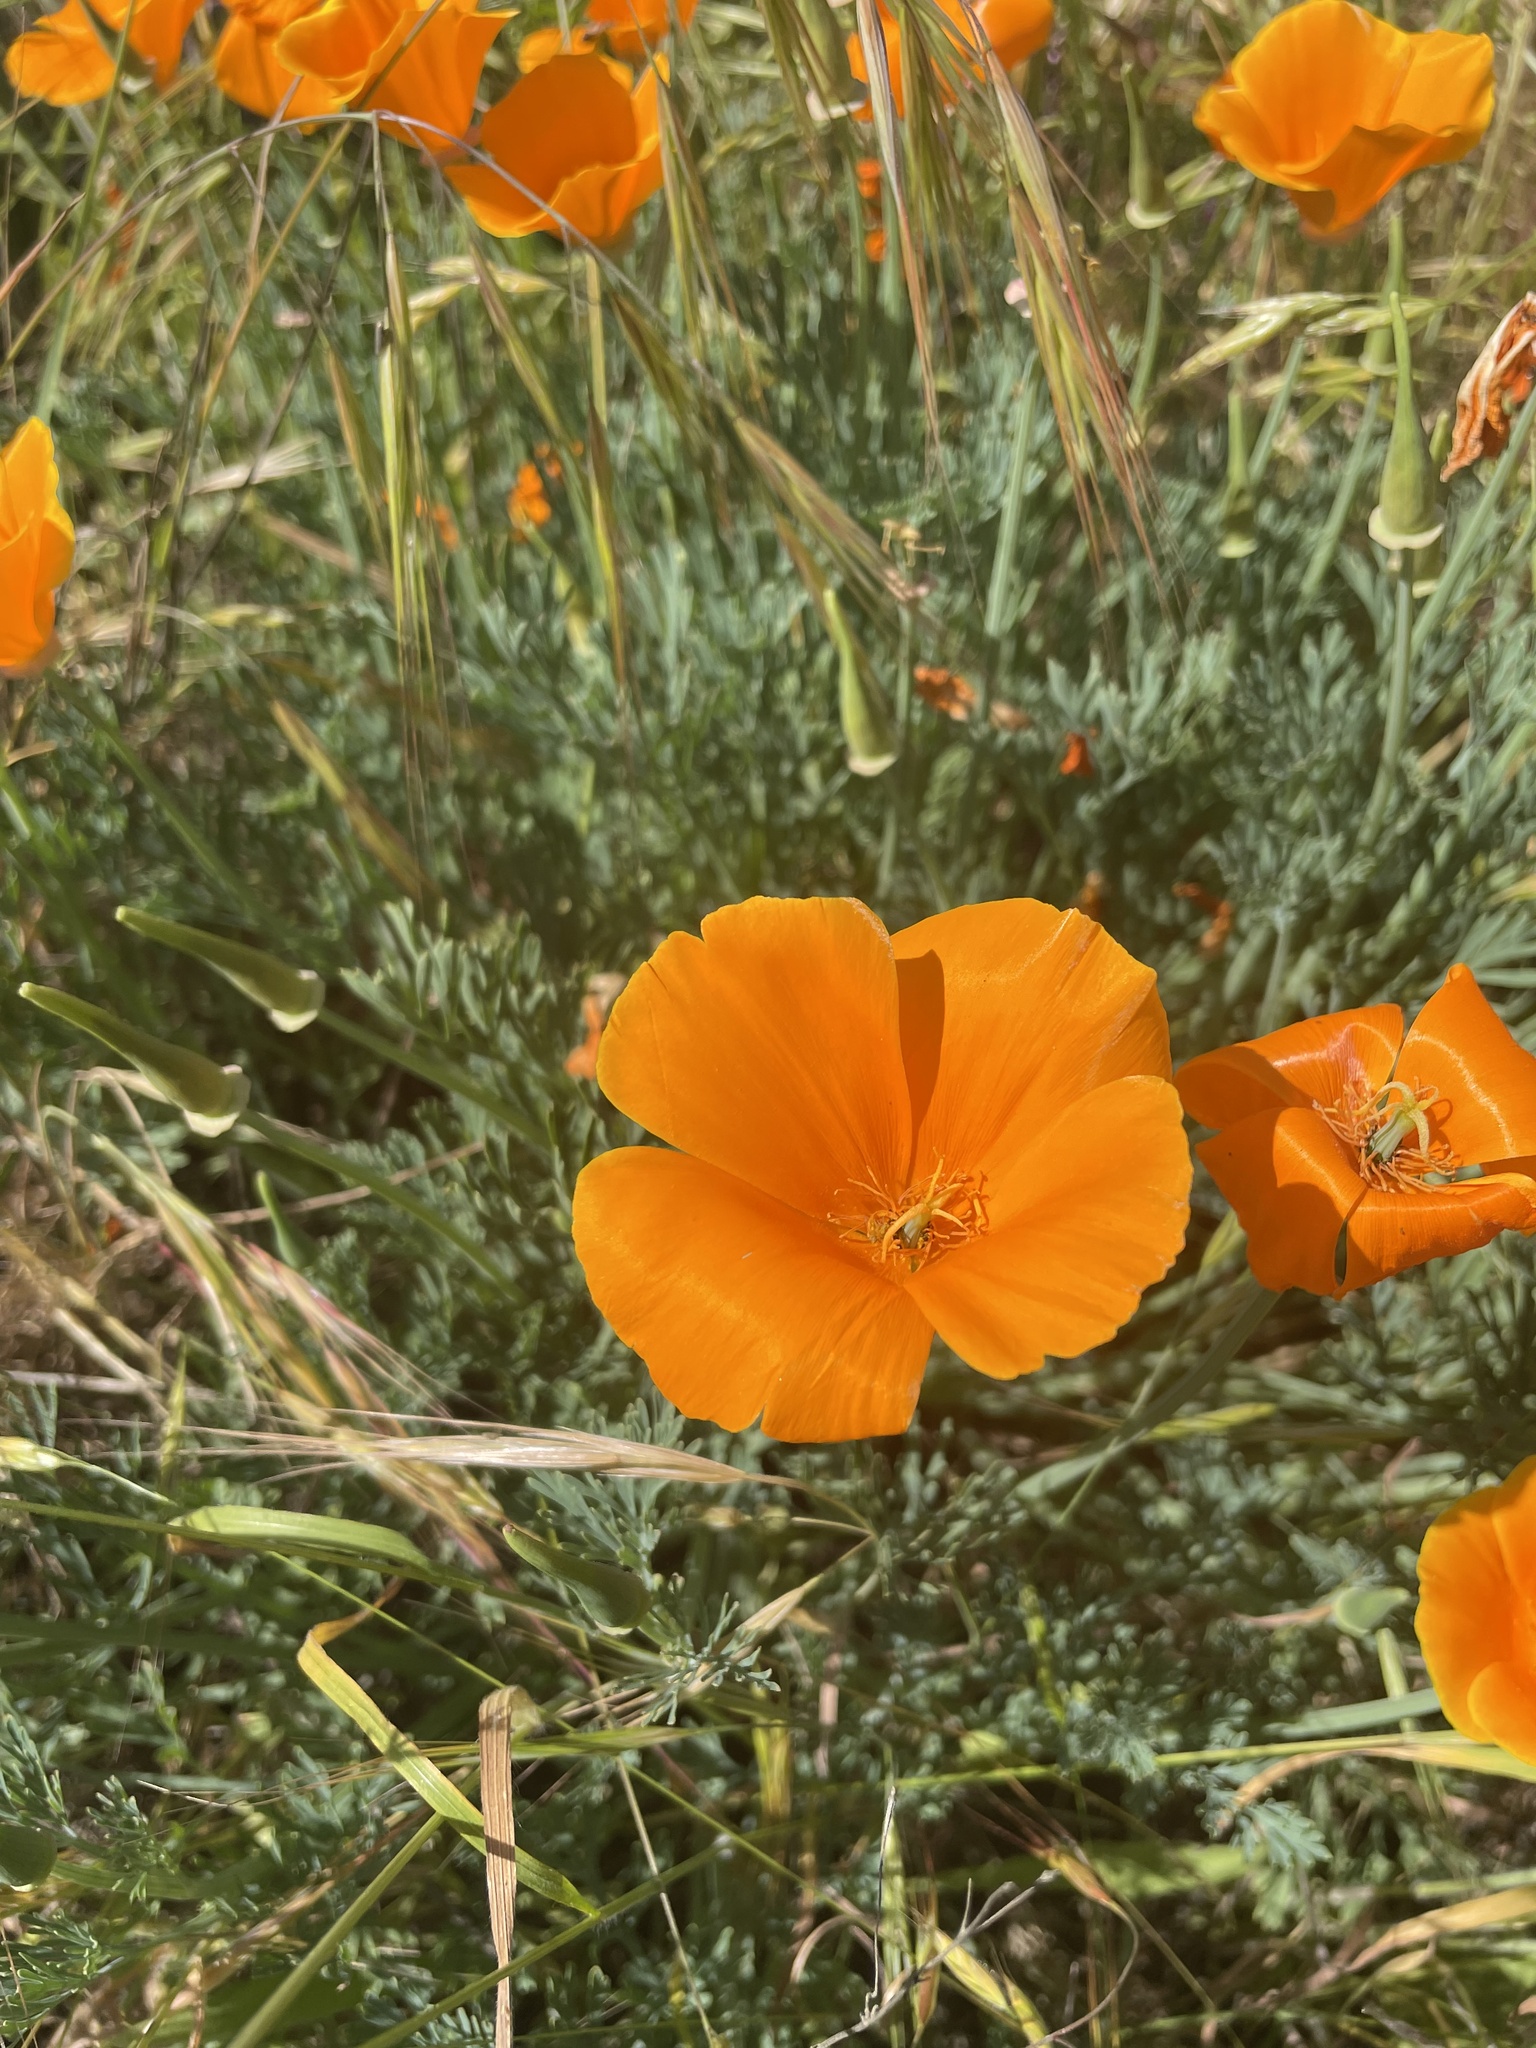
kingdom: Plantae
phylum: Tracheophyta
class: Magnoliopsida
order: Ranunculales
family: Papaveraceae
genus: Eschscholzia
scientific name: Eschscholzia californica
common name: California poppy
